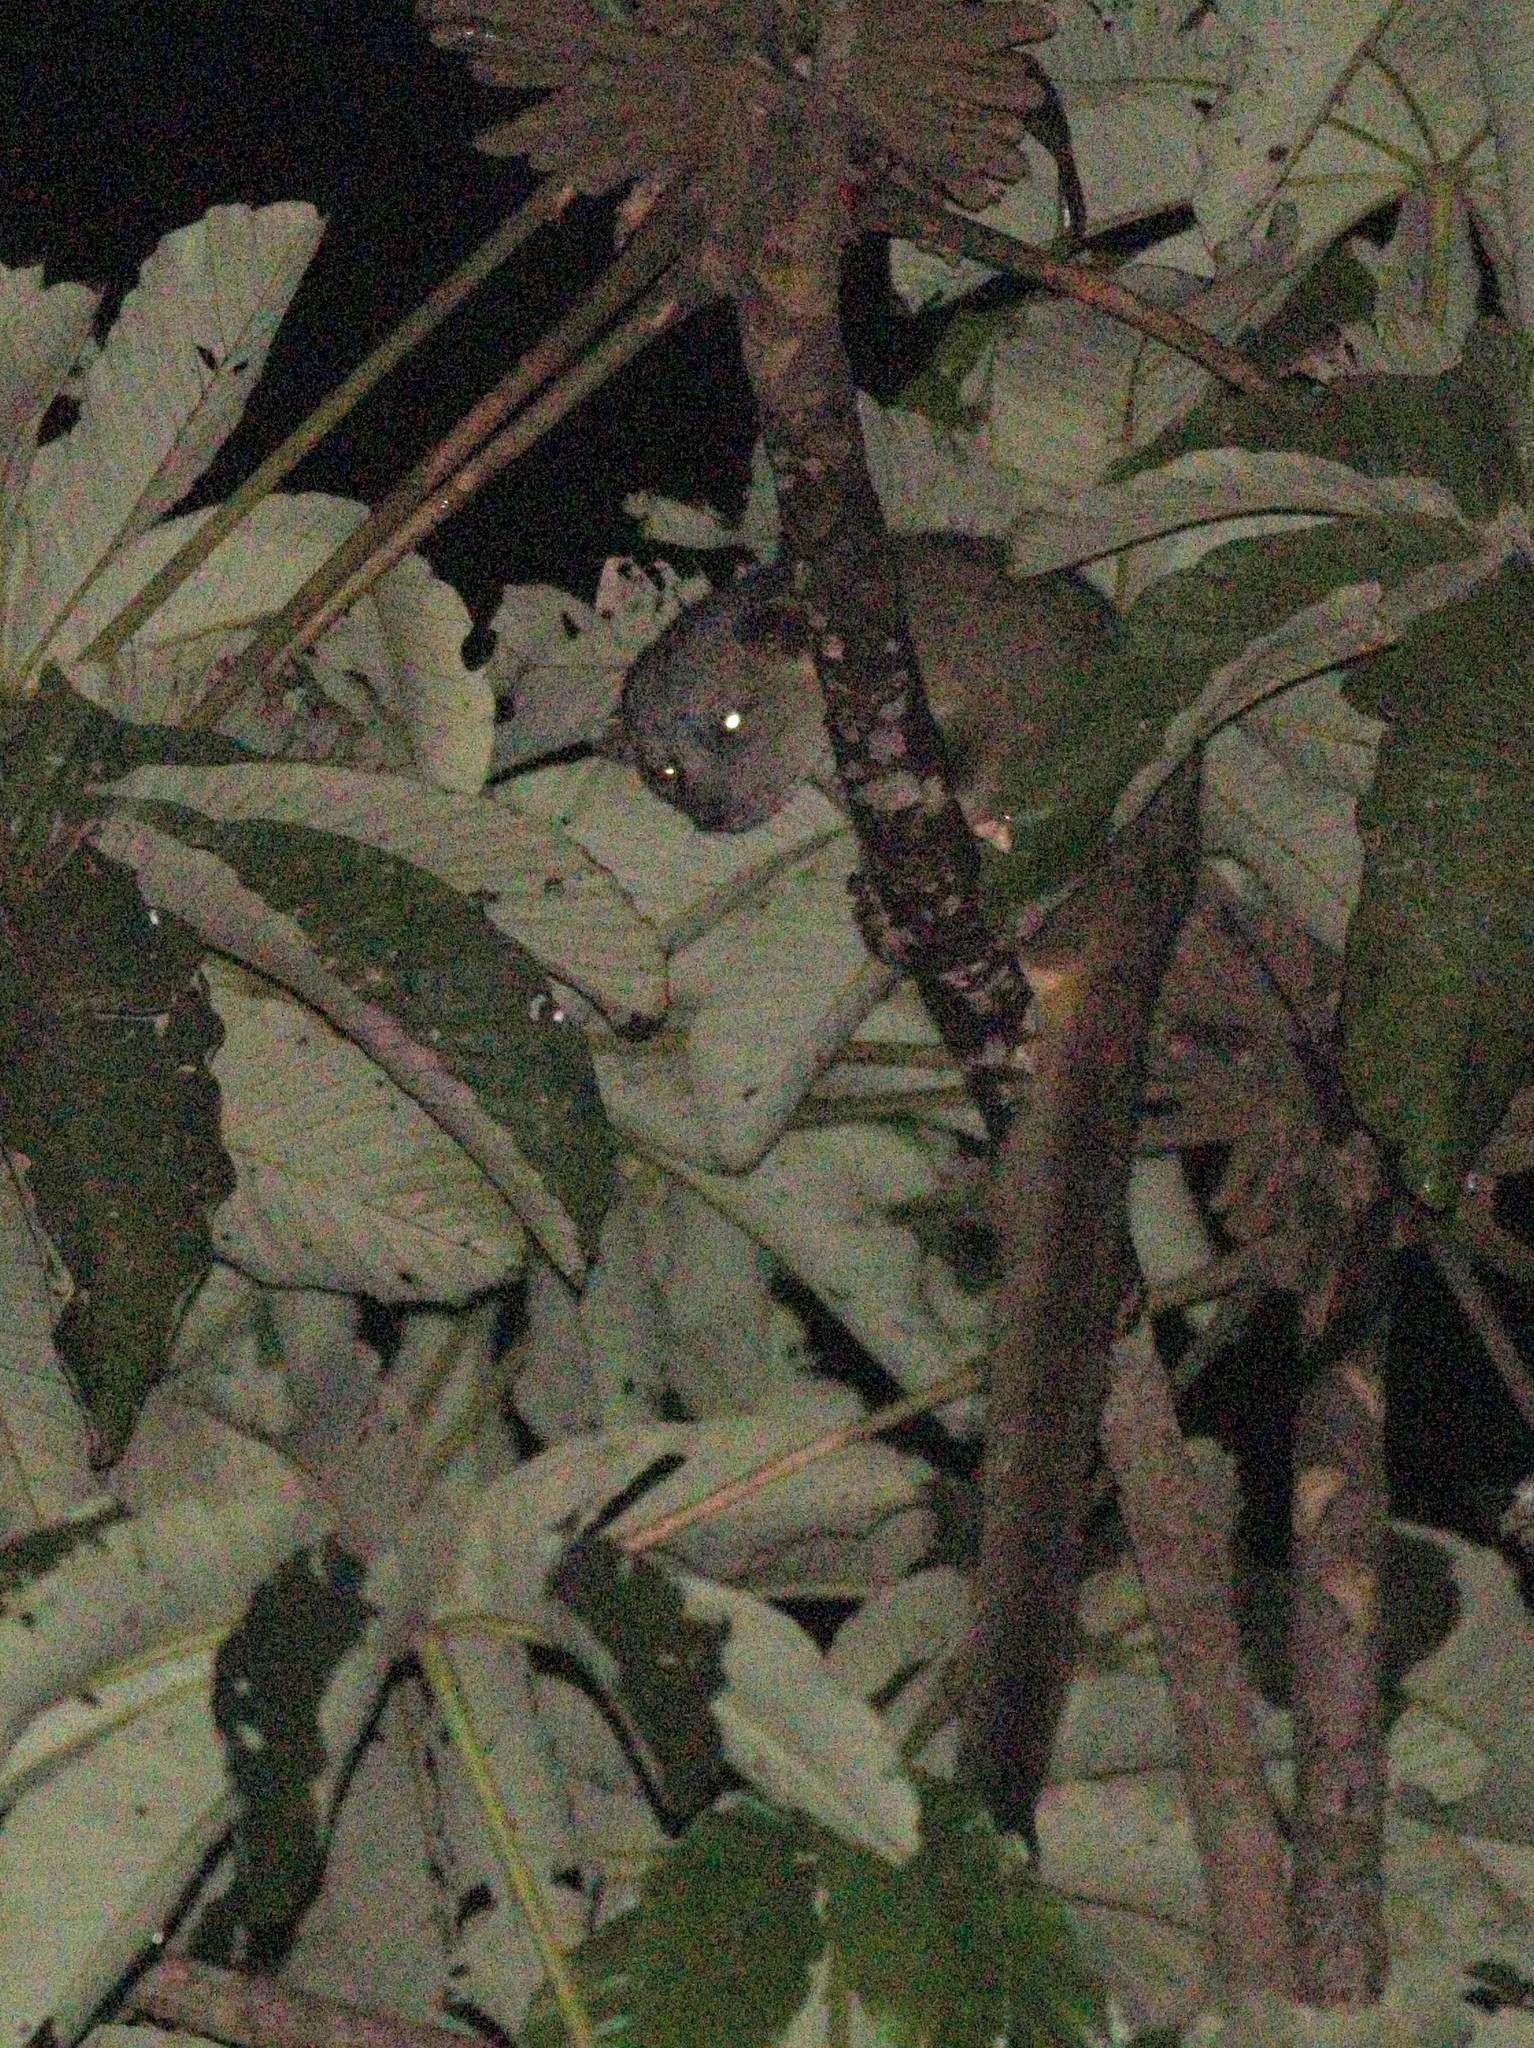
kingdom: Animalia
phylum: Chordata
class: Mammalia
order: Carnivora
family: Procyonidae
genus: Bassaricyon
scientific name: Bassaricyon alleni
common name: Allen's olingo
